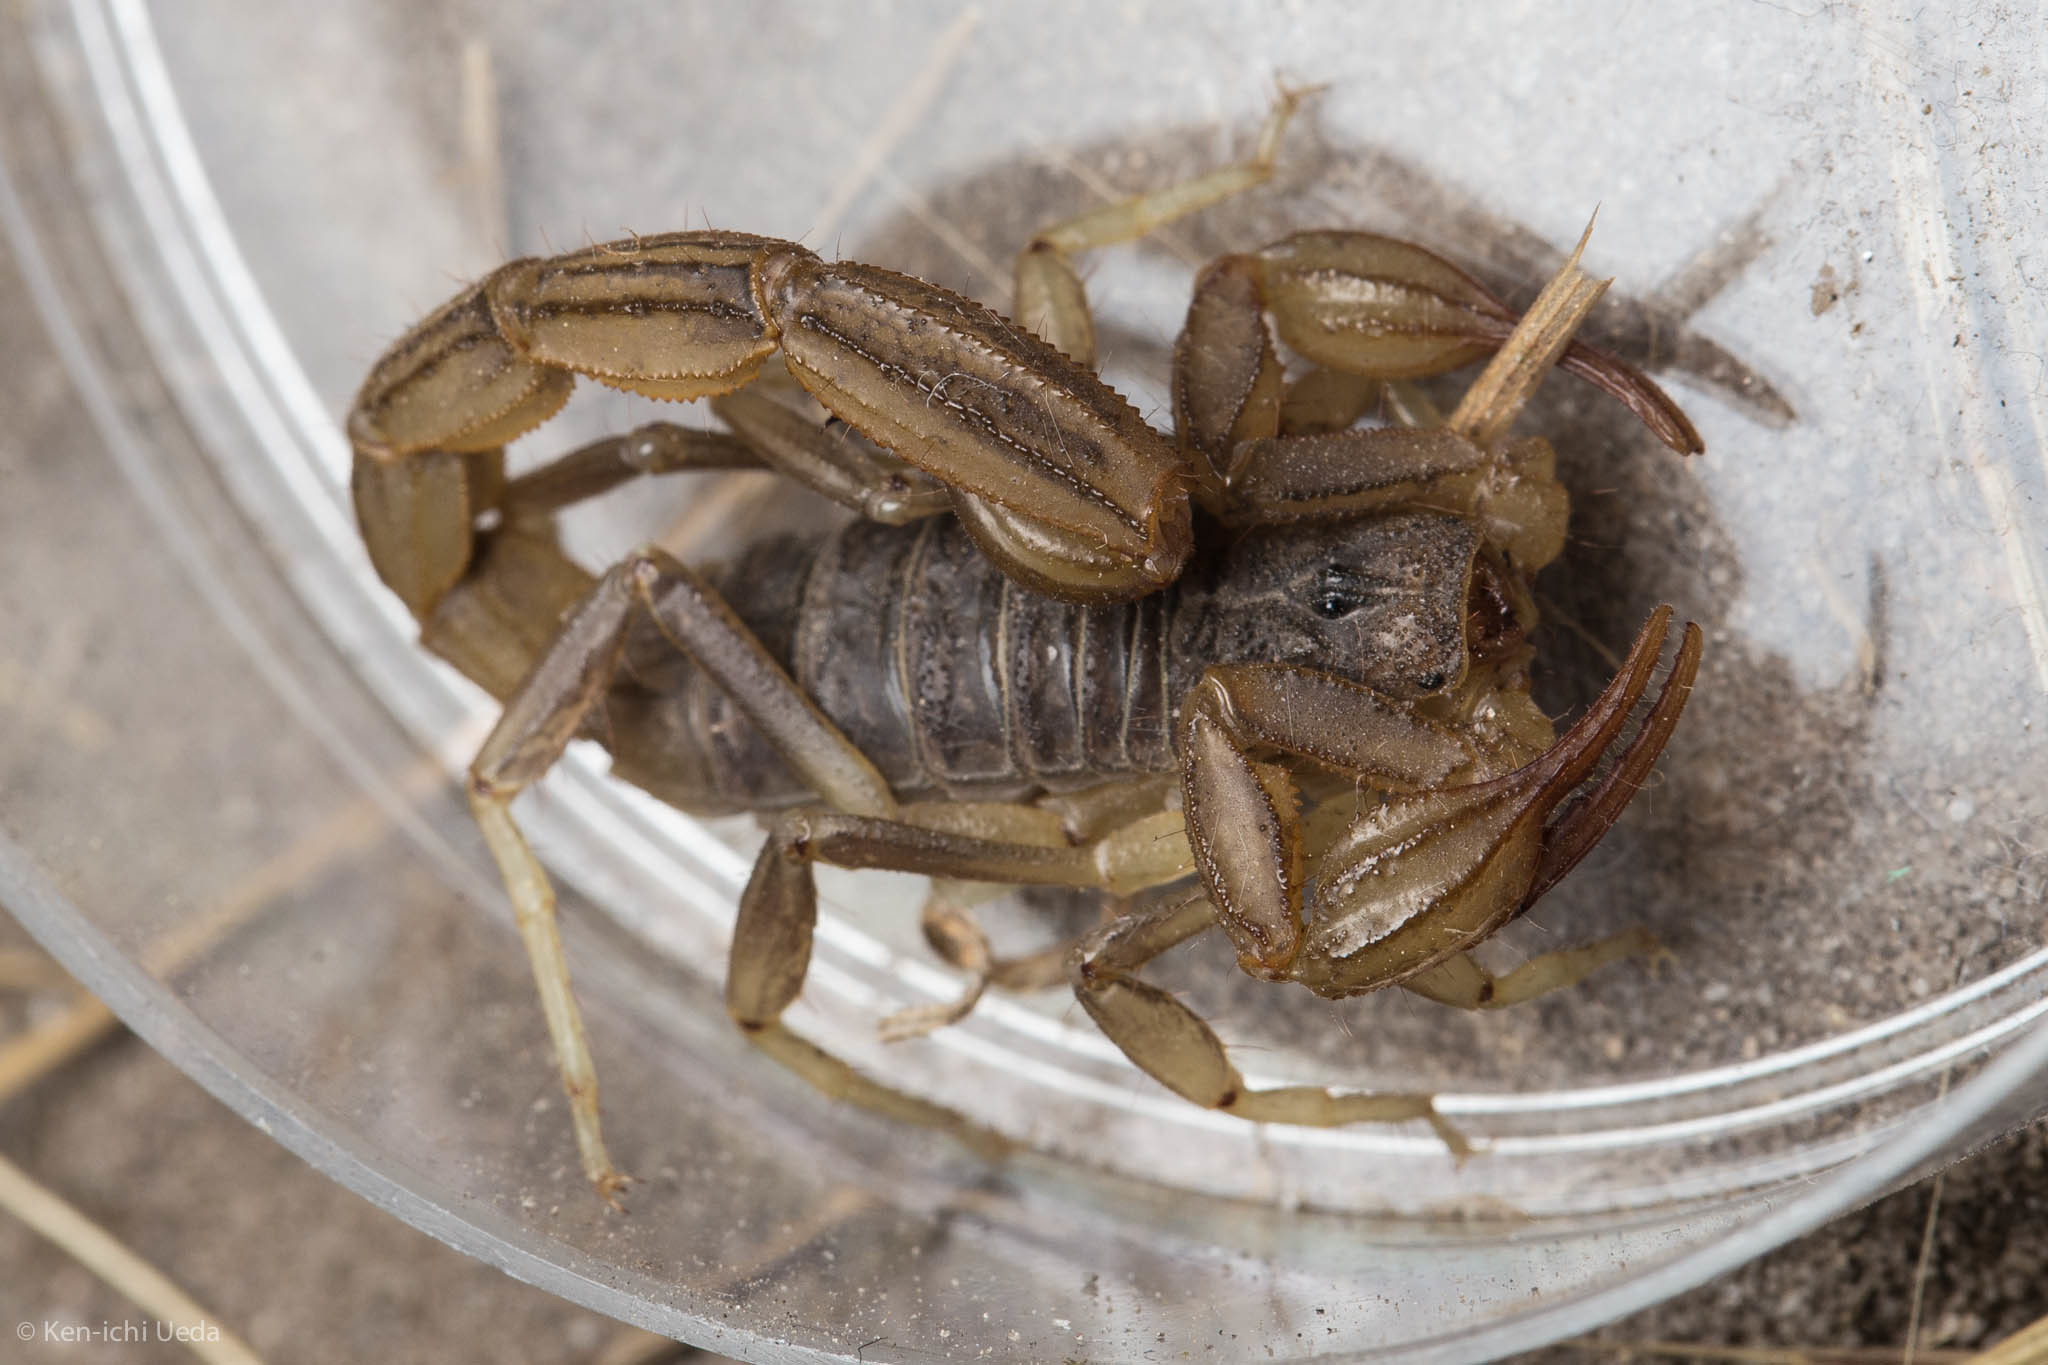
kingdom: Animalia
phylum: Arthropoda
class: Arachnida
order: Scorpiones
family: Vaejovidae
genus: Paruroctonus
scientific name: Paruroctonus silvestrii
